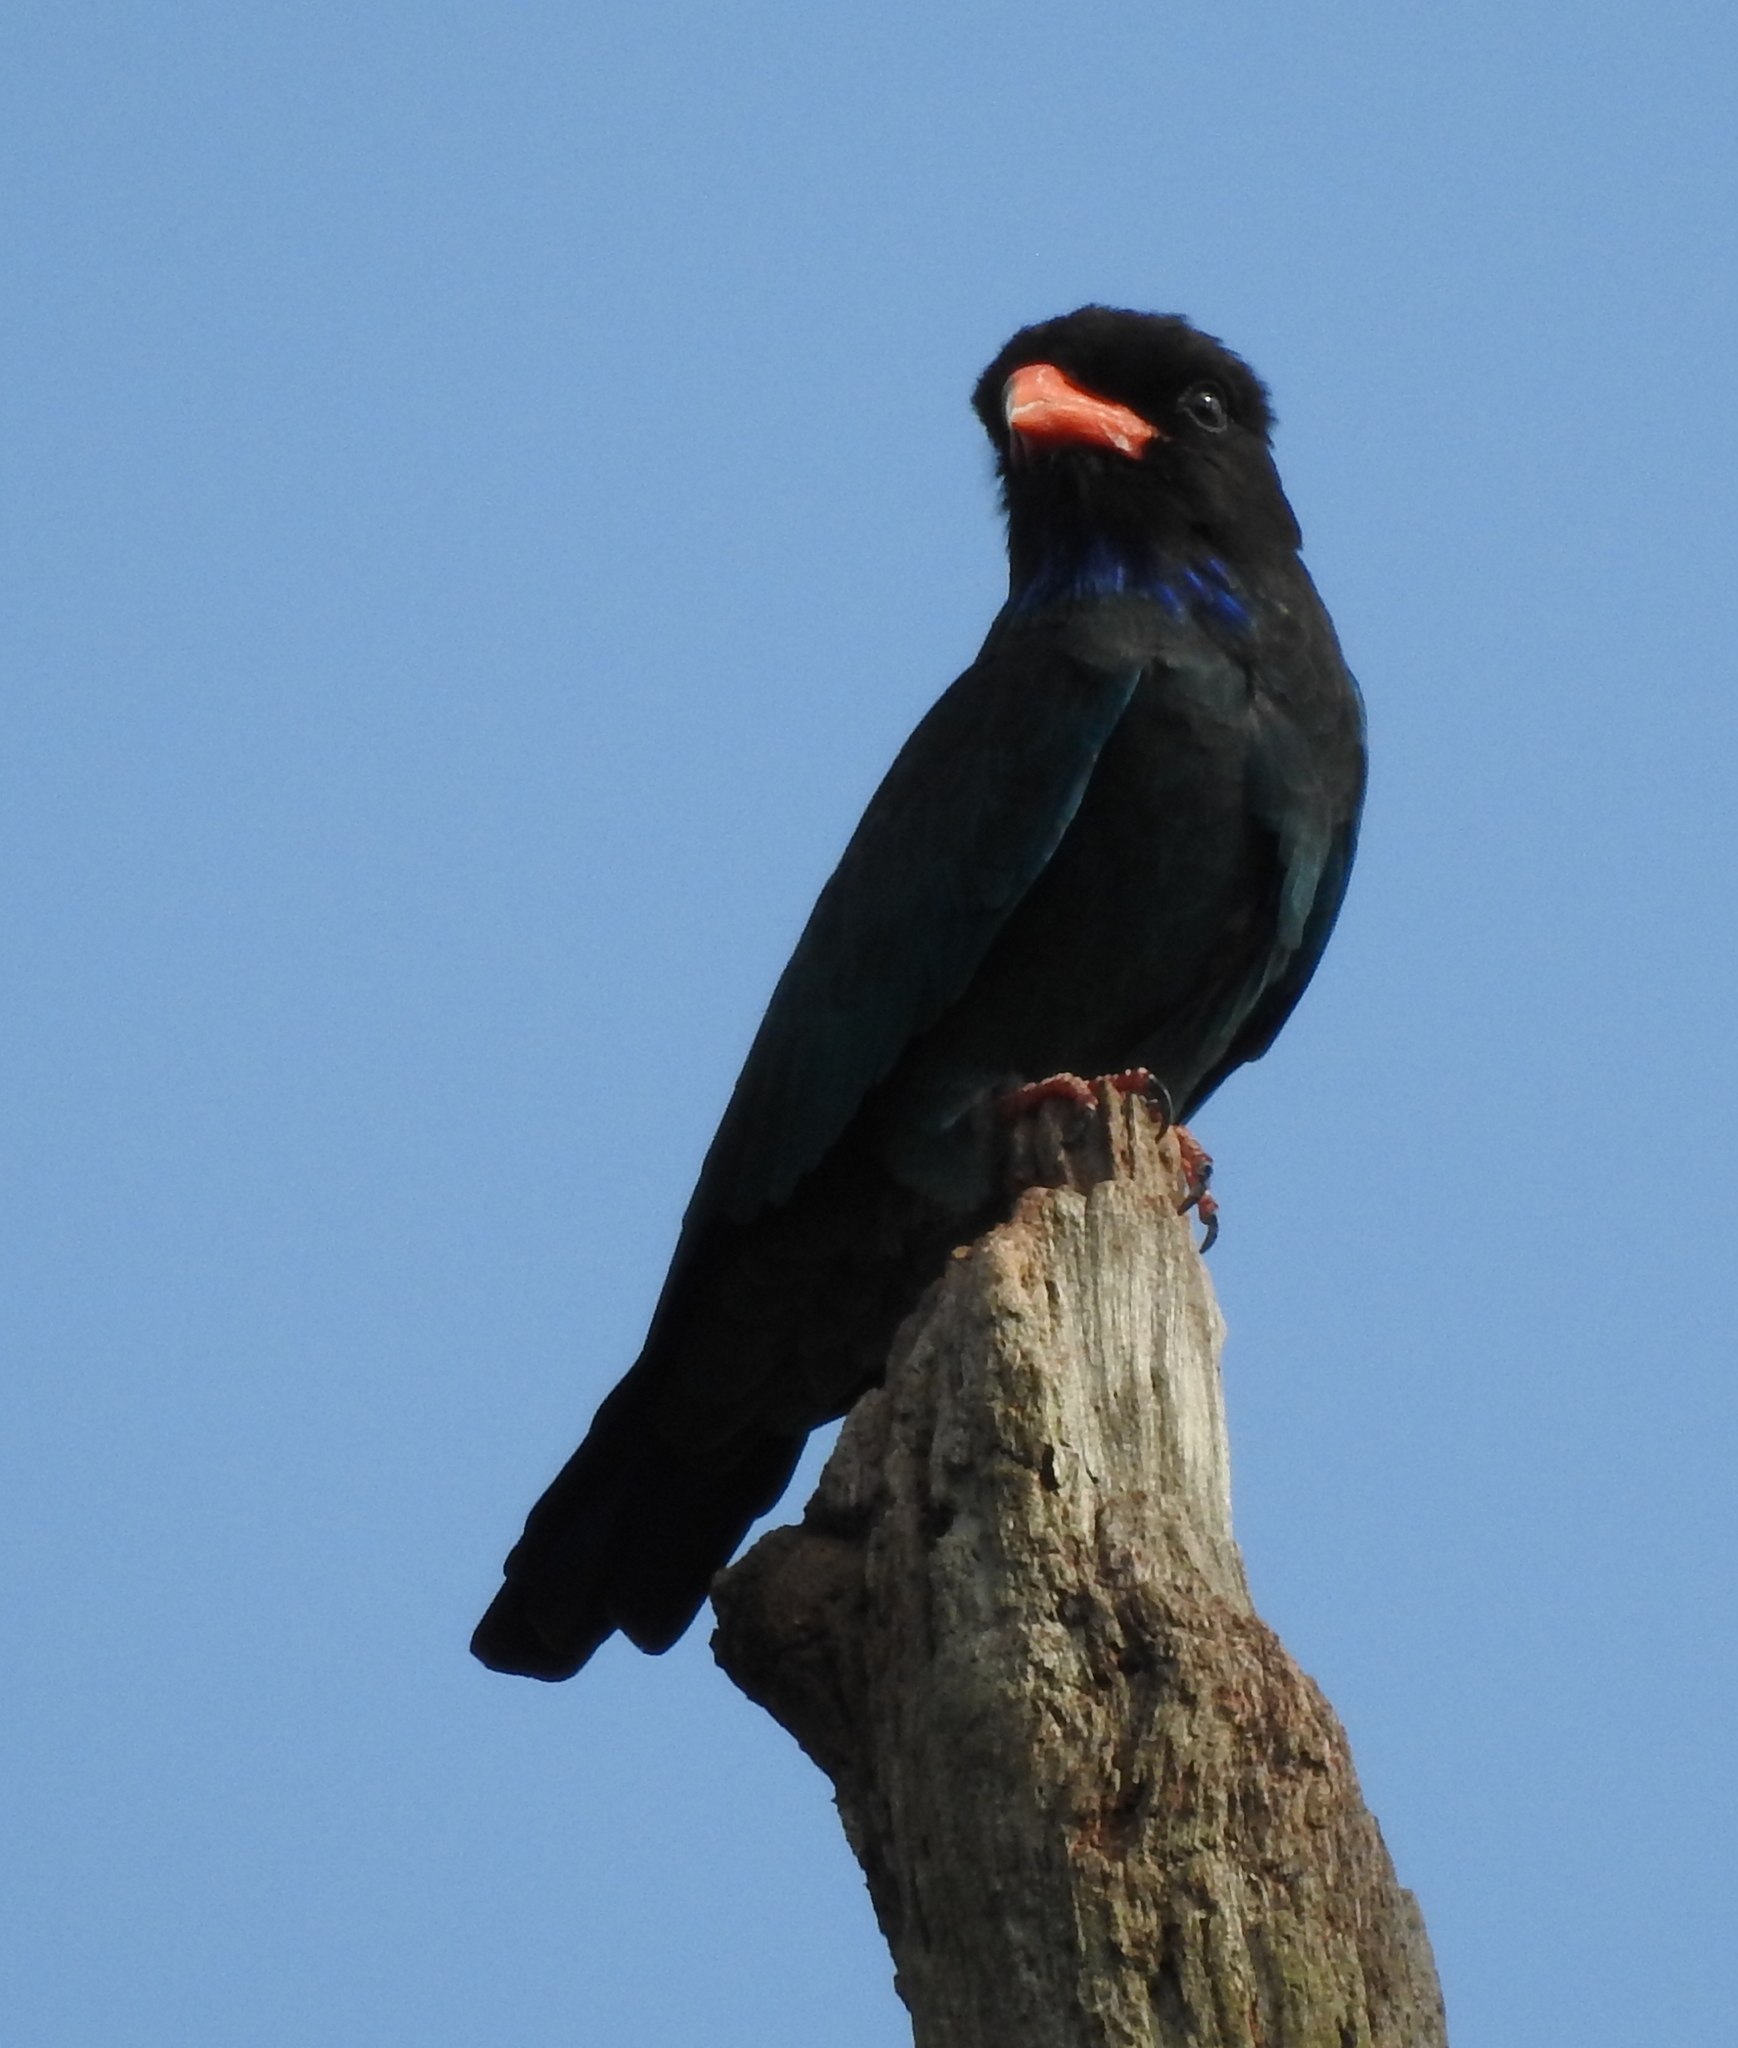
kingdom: Animalia
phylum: Chordata
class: Aves
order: Coraciiformes
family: Coraciidae
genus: Eurystomus
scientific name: Eurystomus orientalis
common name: Oriental dollarbird
